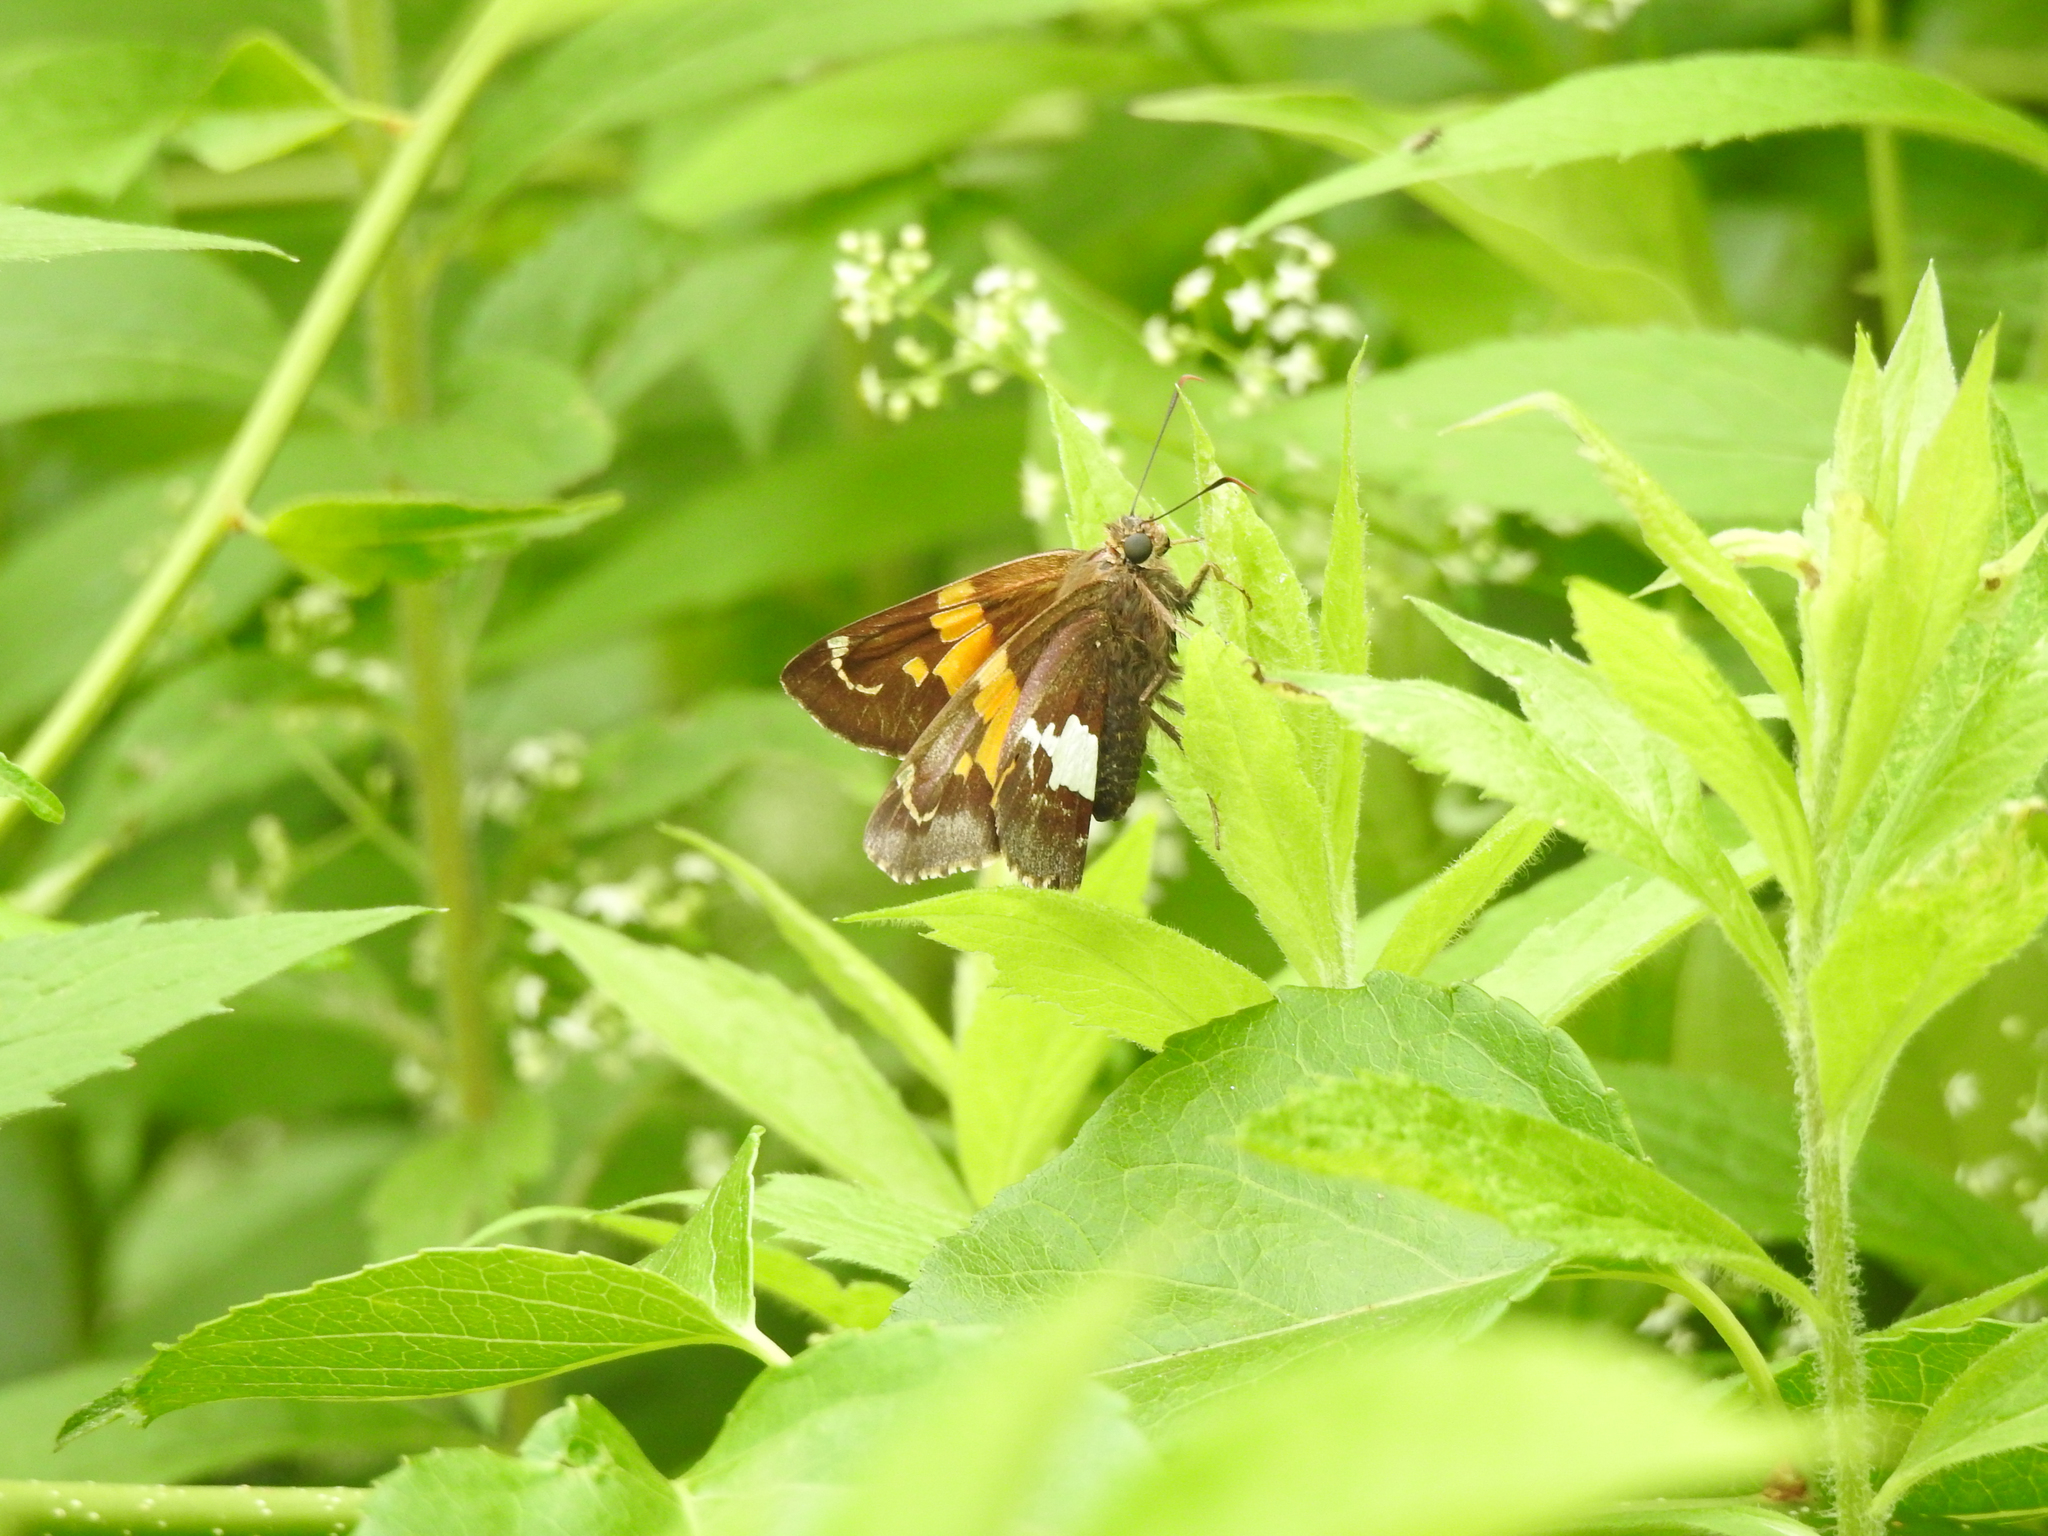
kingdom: Animalia
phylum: Arthropoda
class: Insecta
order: Lepidoptera
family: Hesperiidae
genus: Epargyreus
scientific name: Epargyreus clarus
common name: Silver-spotted skipper
